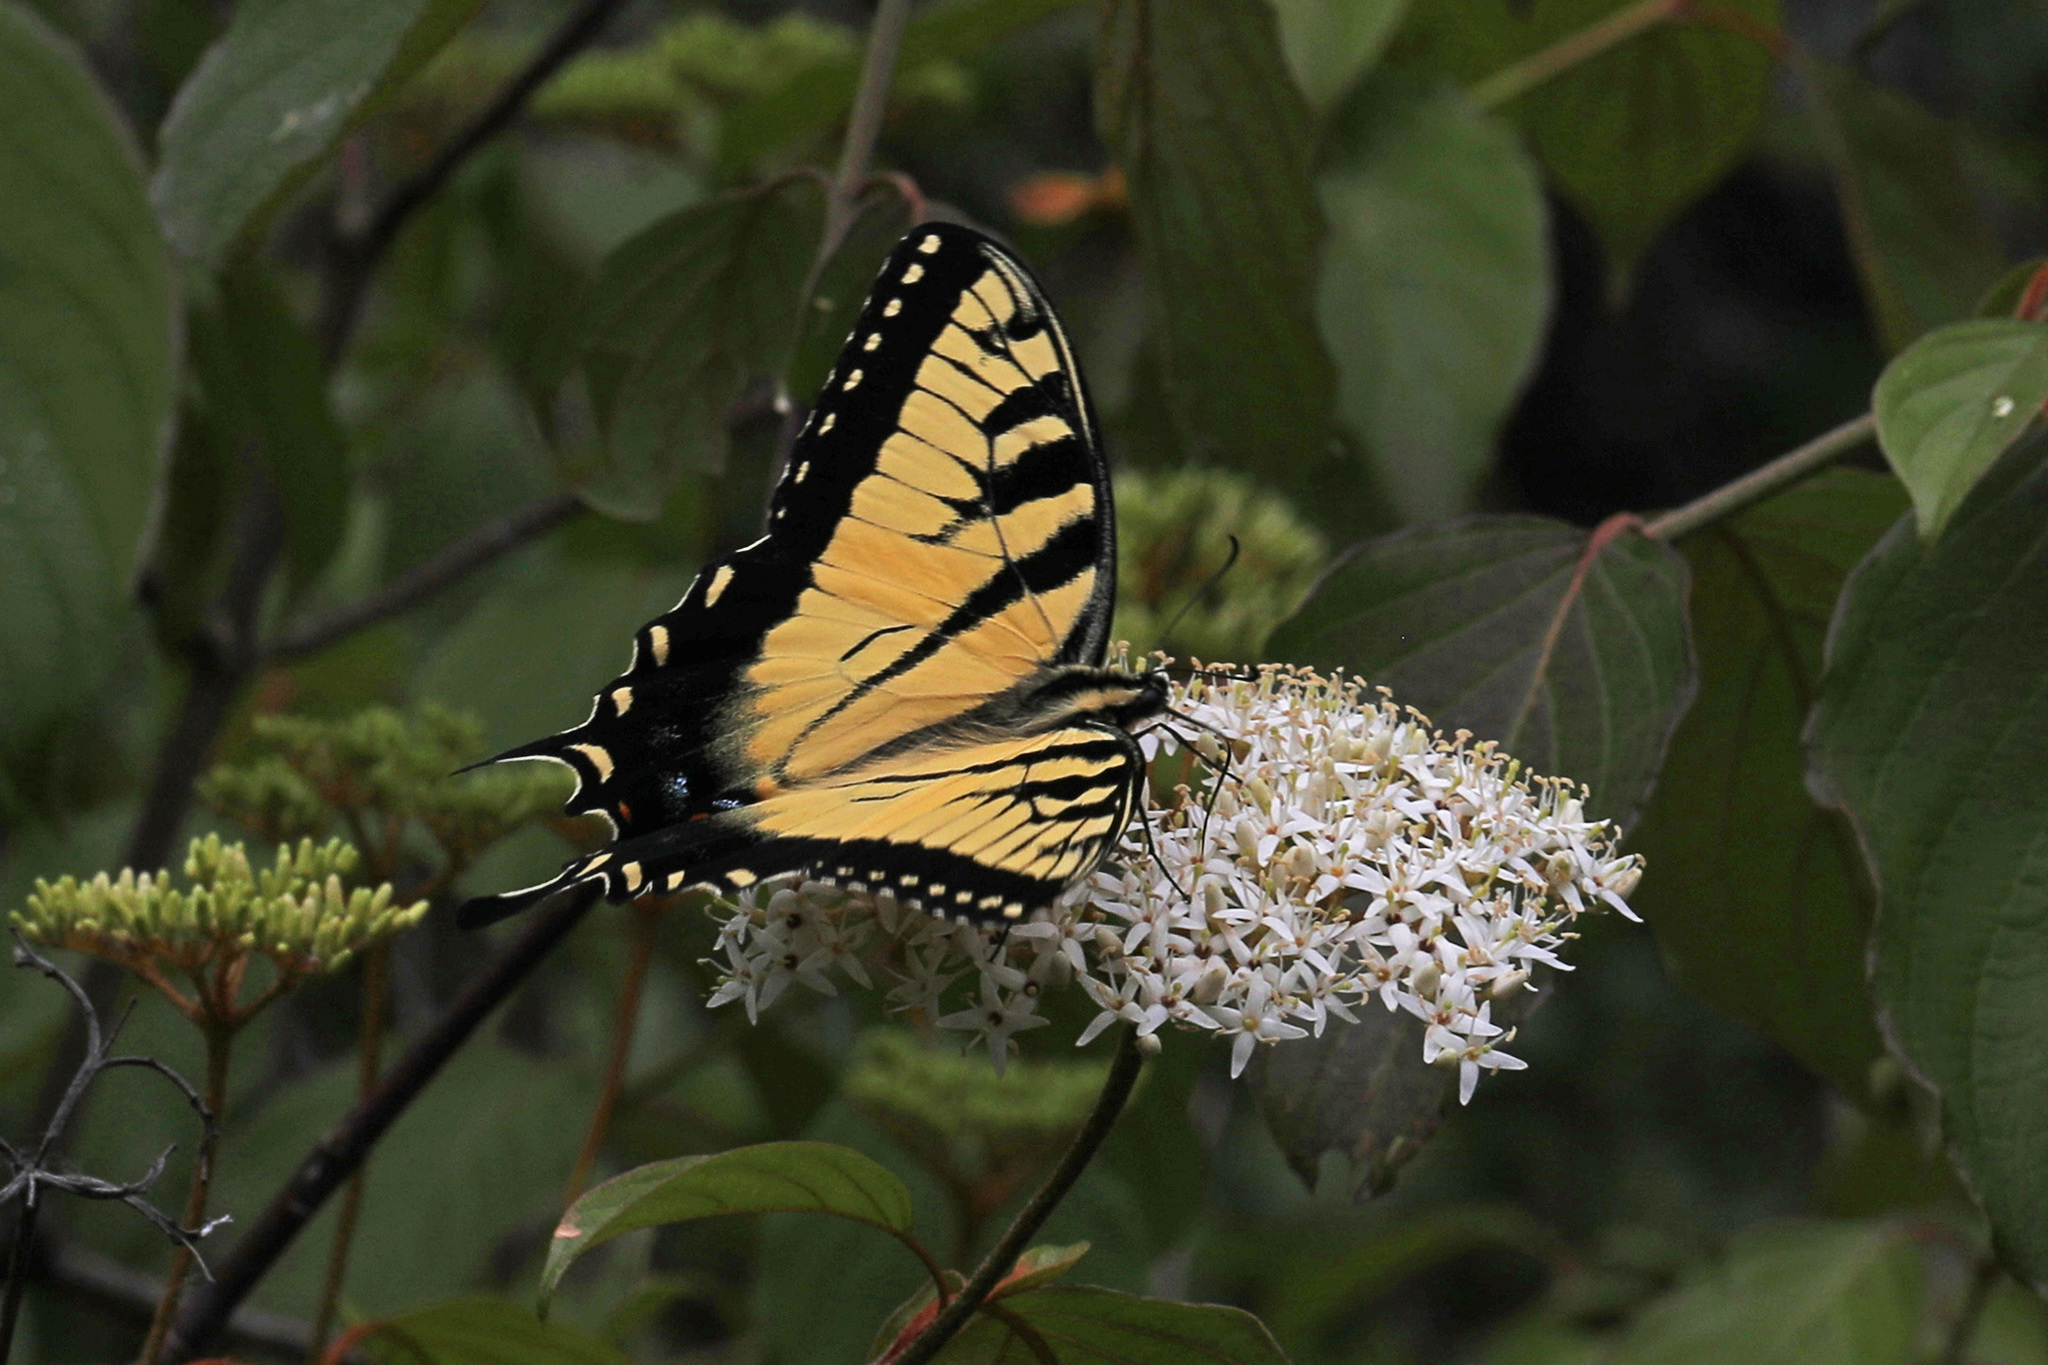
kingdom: Animalia
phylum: Arthropoda
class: Insecta
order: Lepidoptera
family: Papilionidae
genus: Papilio
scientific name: Papilio glaucus
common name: Tiger swallowtail
